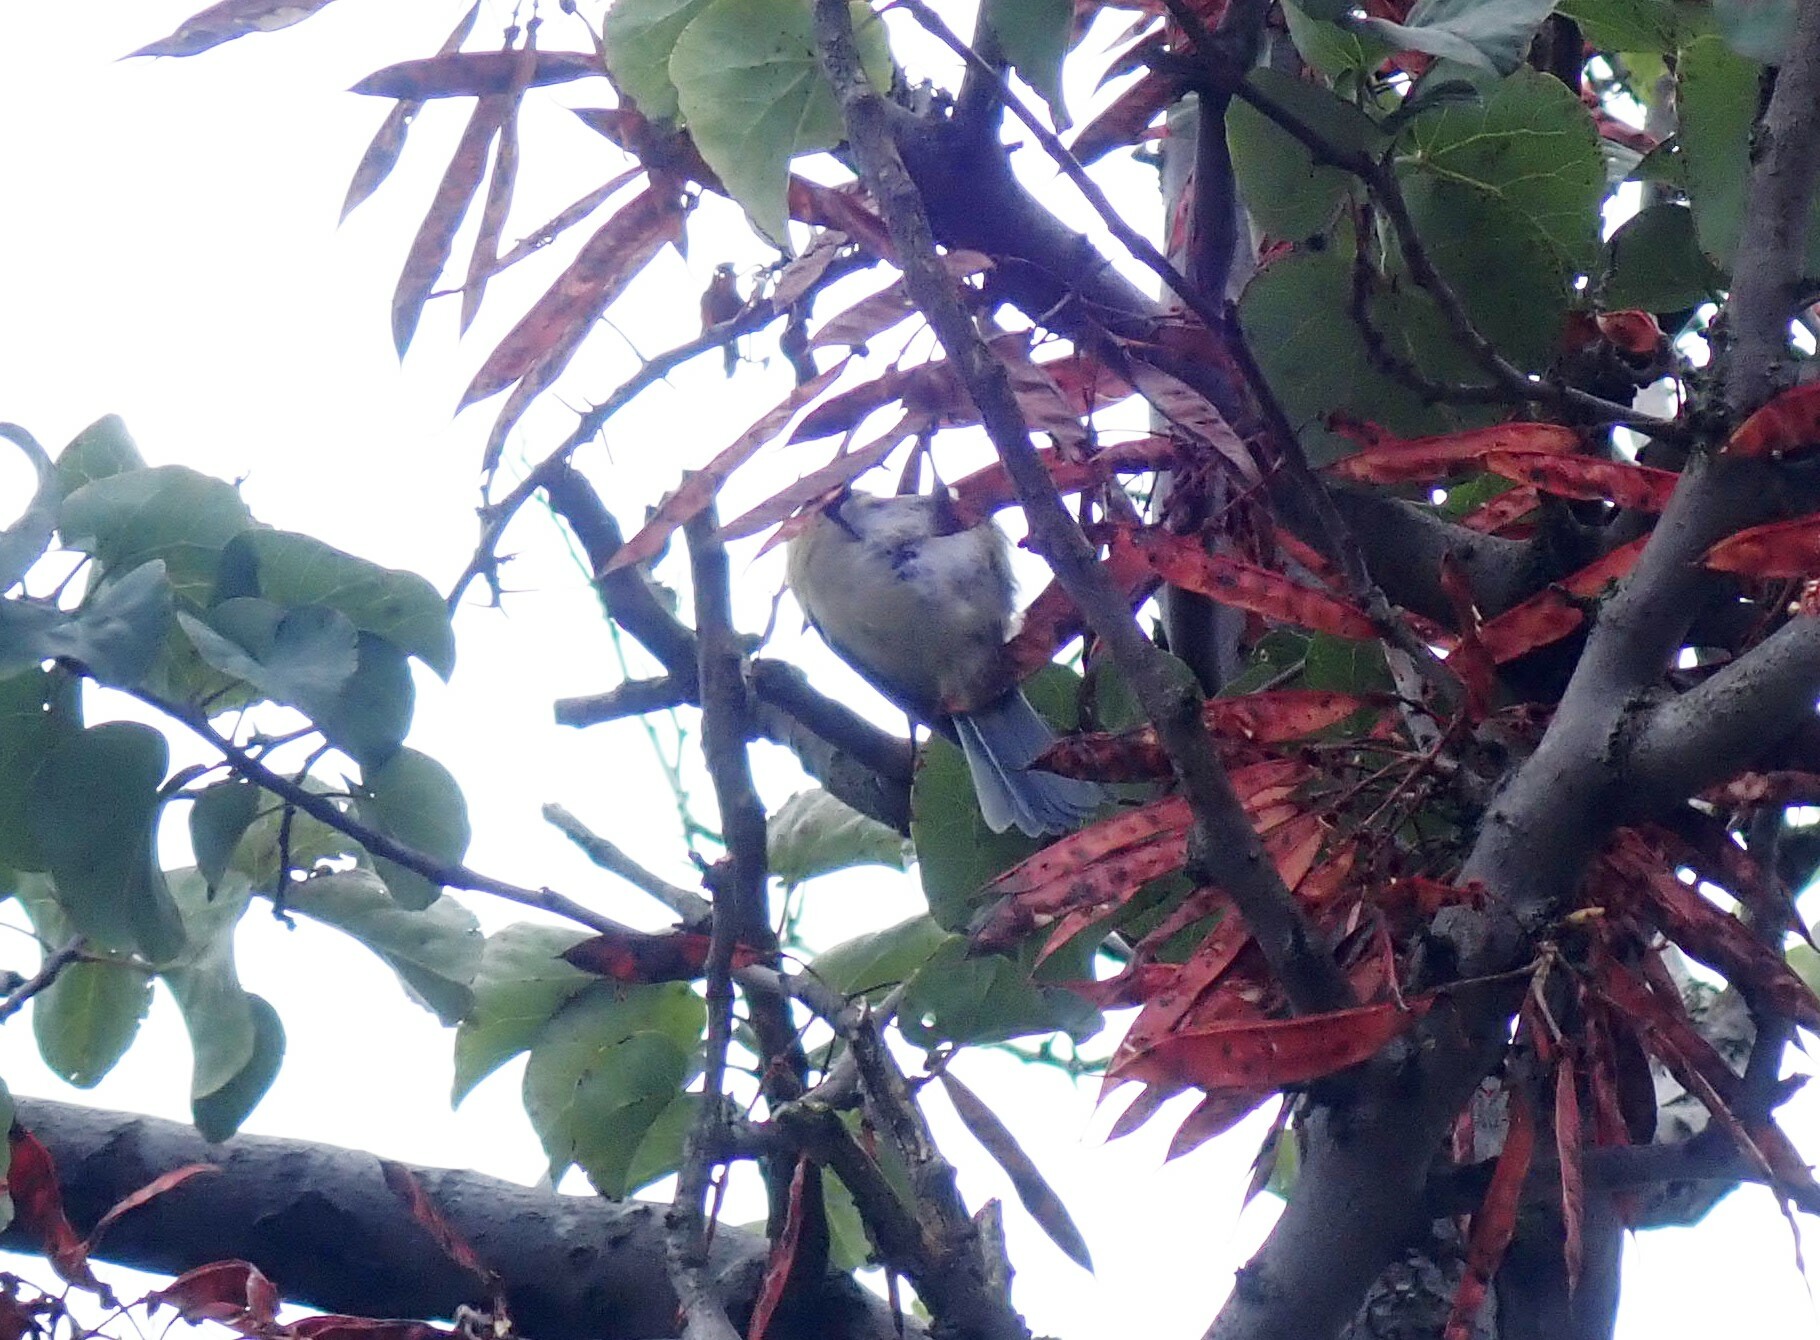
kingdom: Animalia
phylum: Chordata
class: Aves
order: Passeriformes
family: Paridae
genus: Cyanistes
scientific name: Cyanistes caeruleus
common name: Eurasian blue tit
